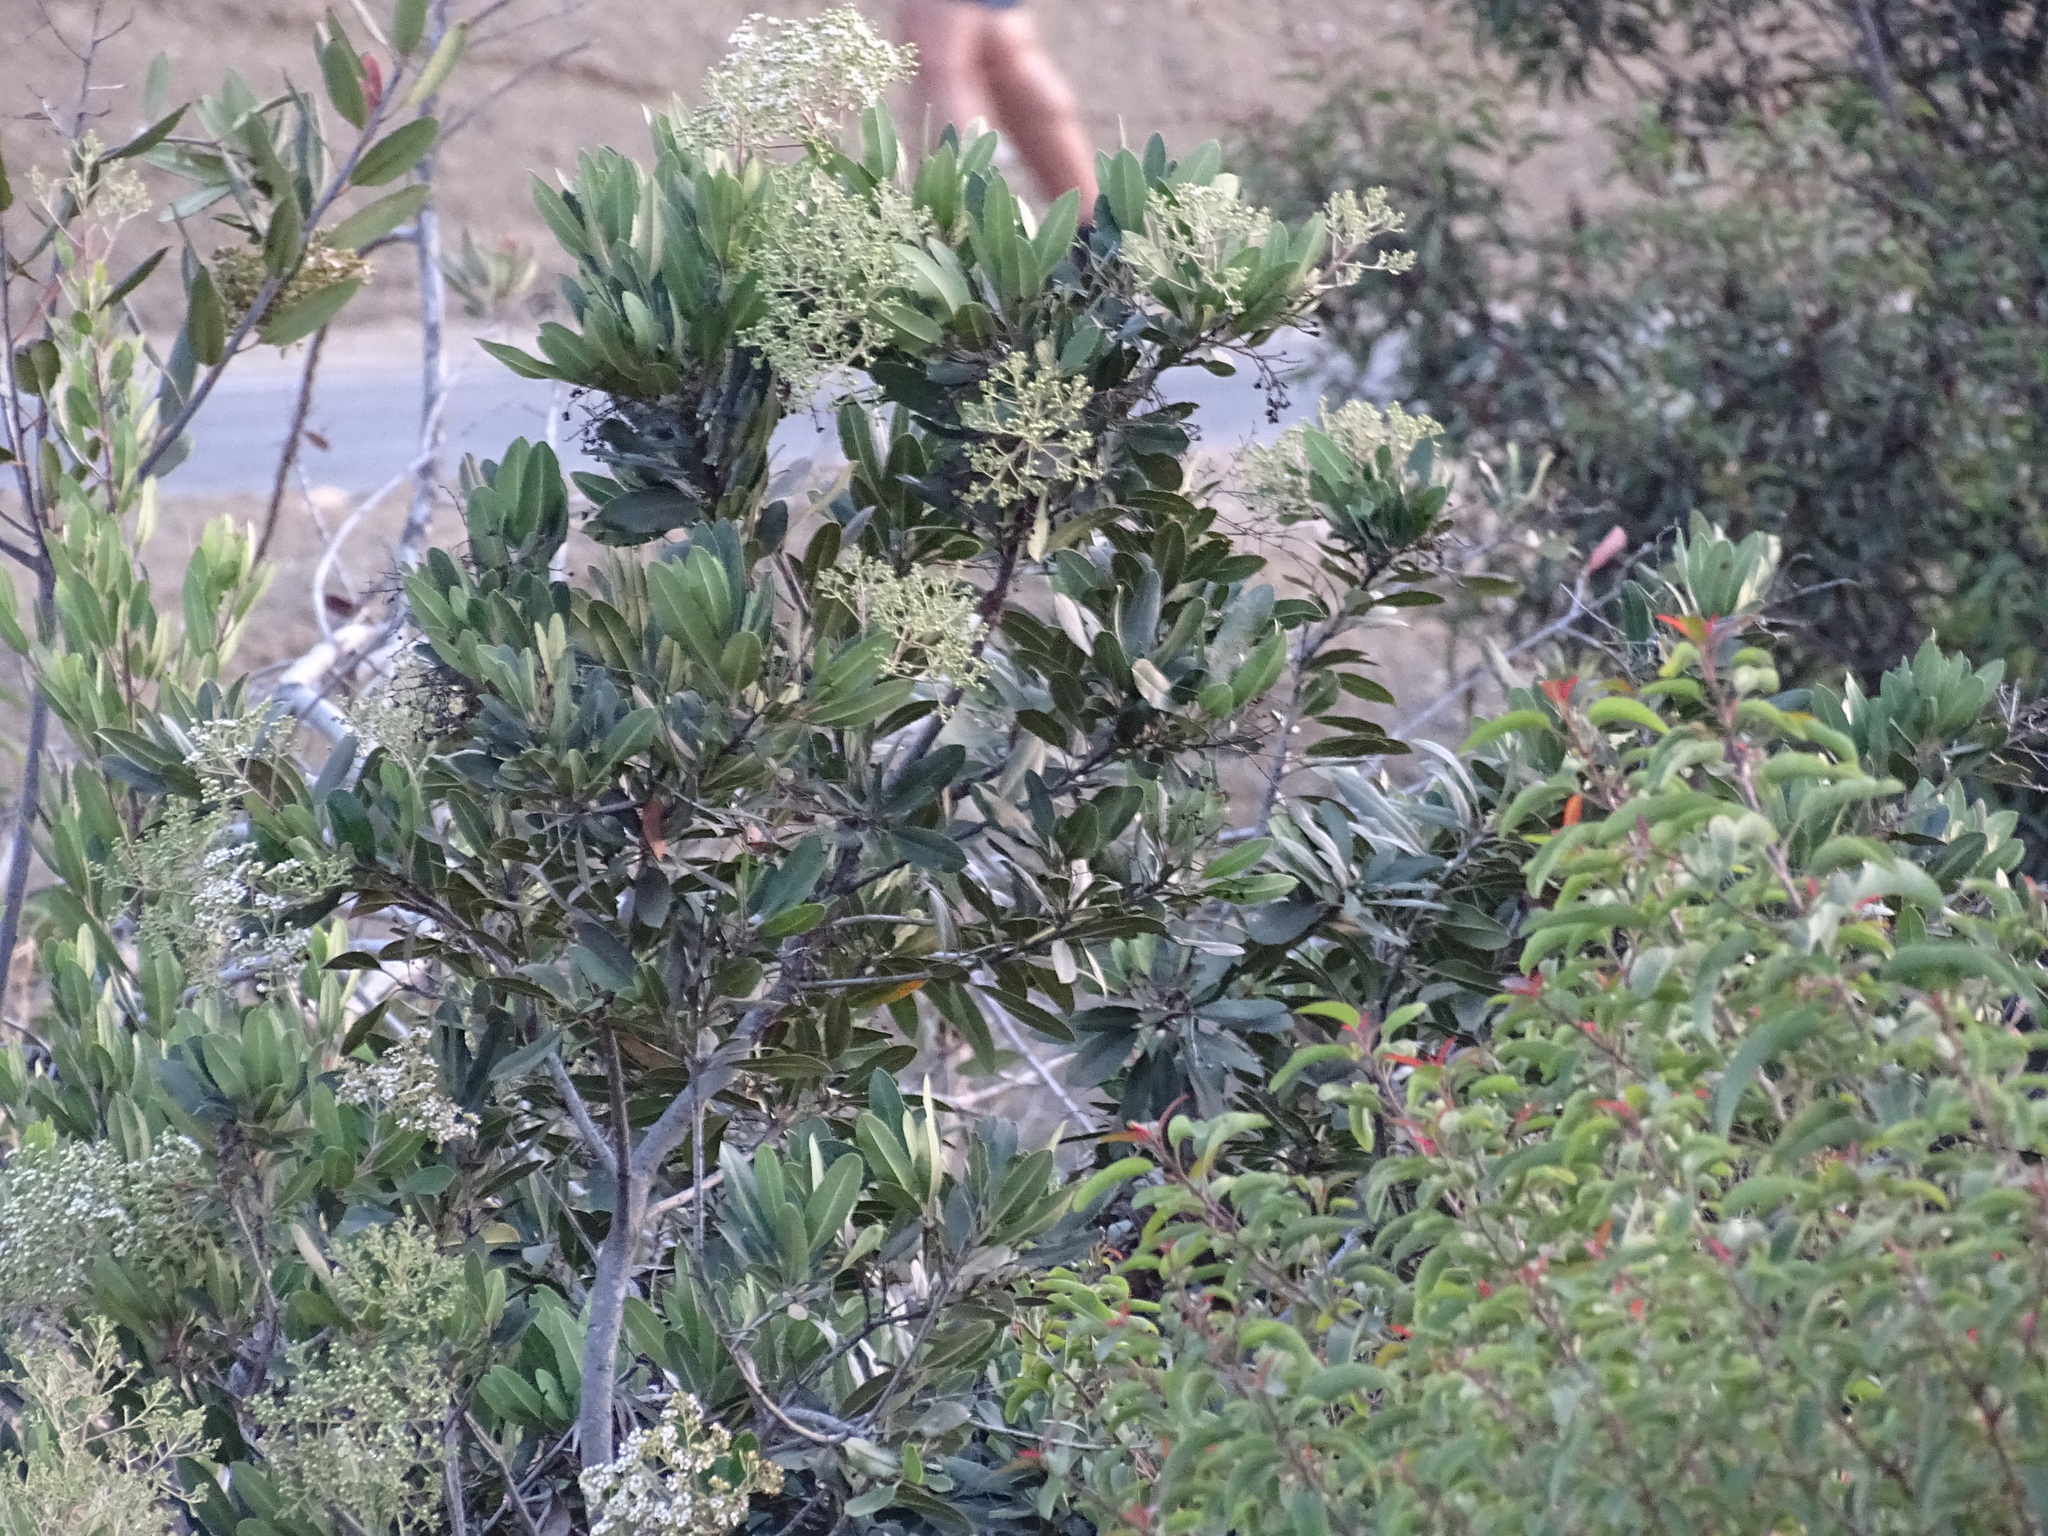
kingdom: Plantae
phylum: Tracheophyta
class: Magnoliopsida
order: Rosales
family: Rosaceae
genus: Heteromeles
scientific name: Heteromeles arbutifolia
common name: California-holly
